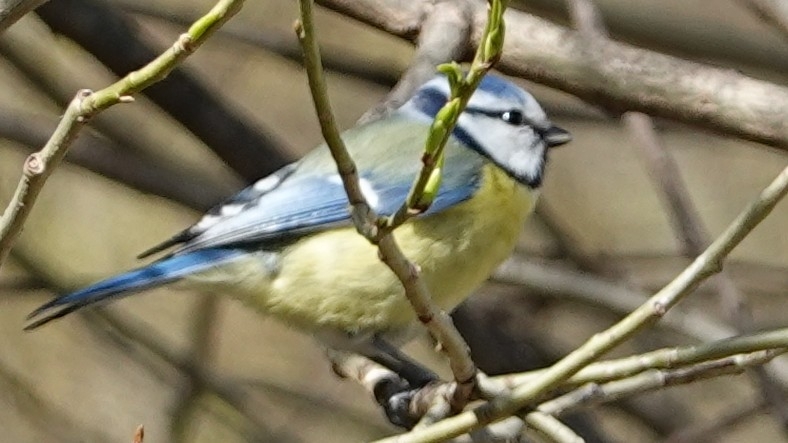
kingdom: Animalia
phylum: Chordata
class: Aves
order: Passeriformes
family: Paridae
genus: Cyanistes
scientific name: Cyanistes caeruleus
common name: Eurasian blue tit
